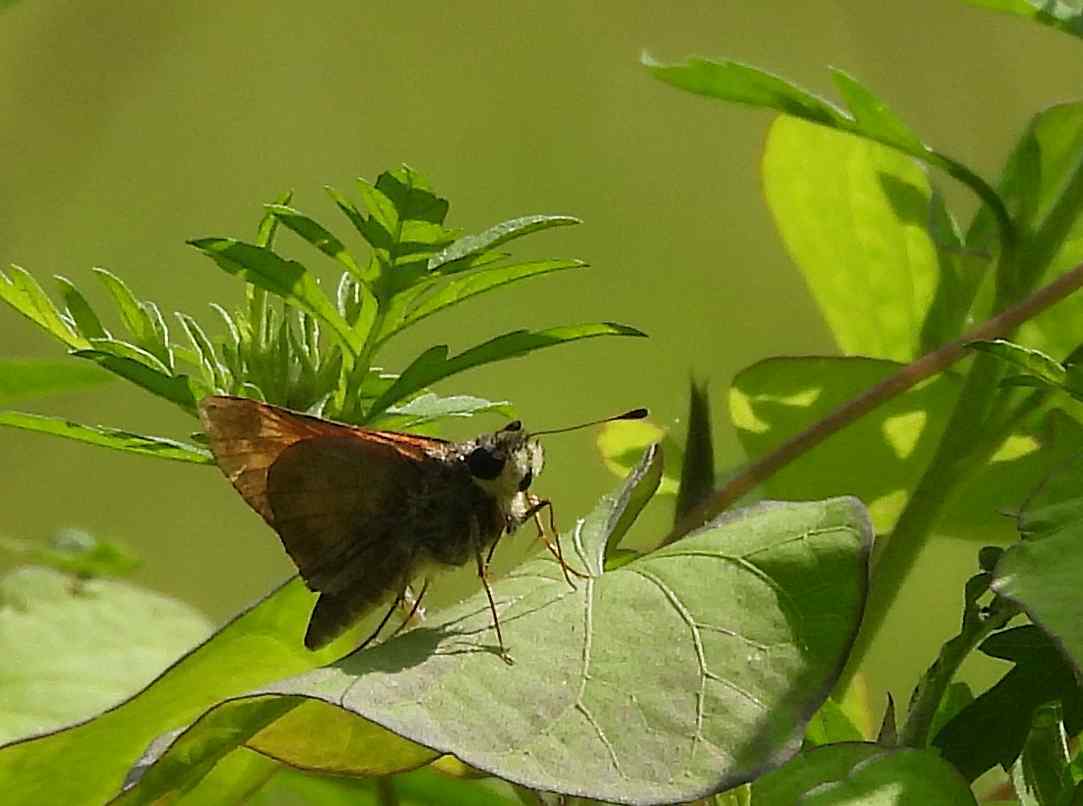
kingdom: Animalia
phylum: Arthropoda
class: Insecta
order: Lepidoptera
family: Hesperiidae
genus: Atalopedes
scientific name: Atalopedes
